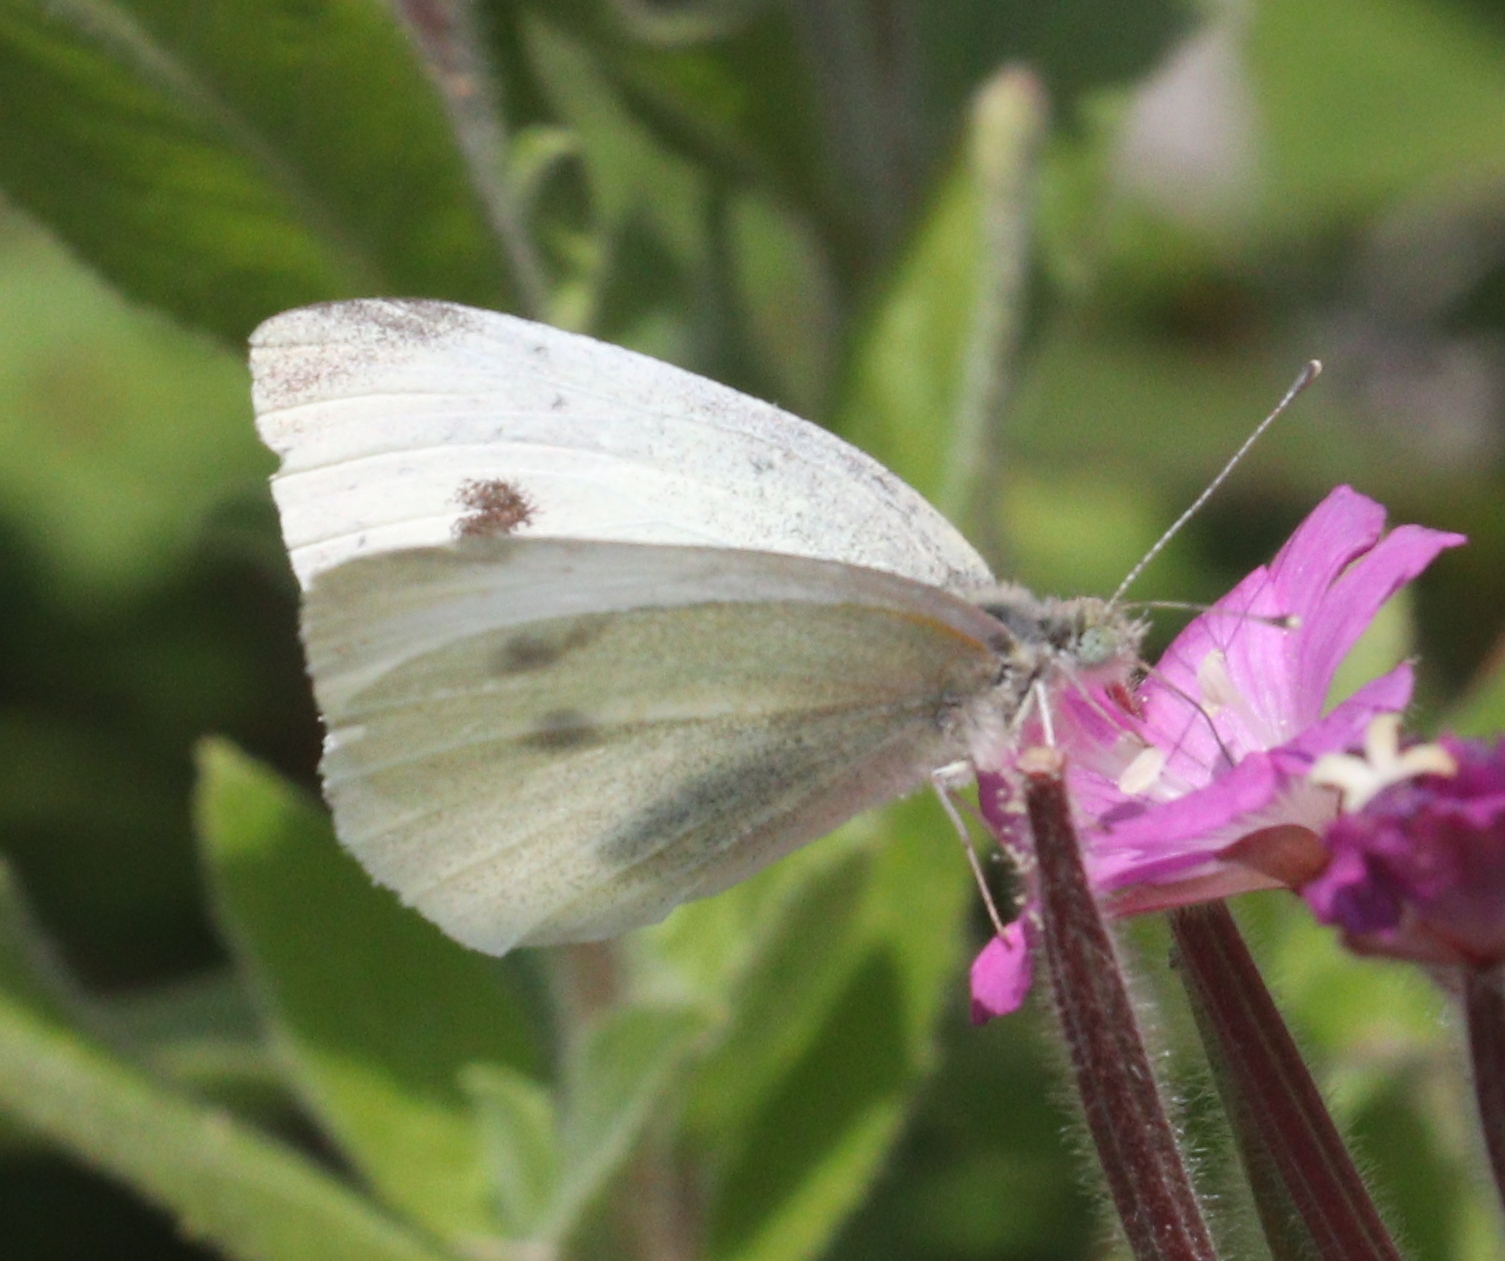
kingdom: Animalia
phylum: Arthropoda
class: Insecta
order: Lepidoptera
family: Pieridae
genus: Pieris
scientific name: Pieris rapae
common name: Small white
